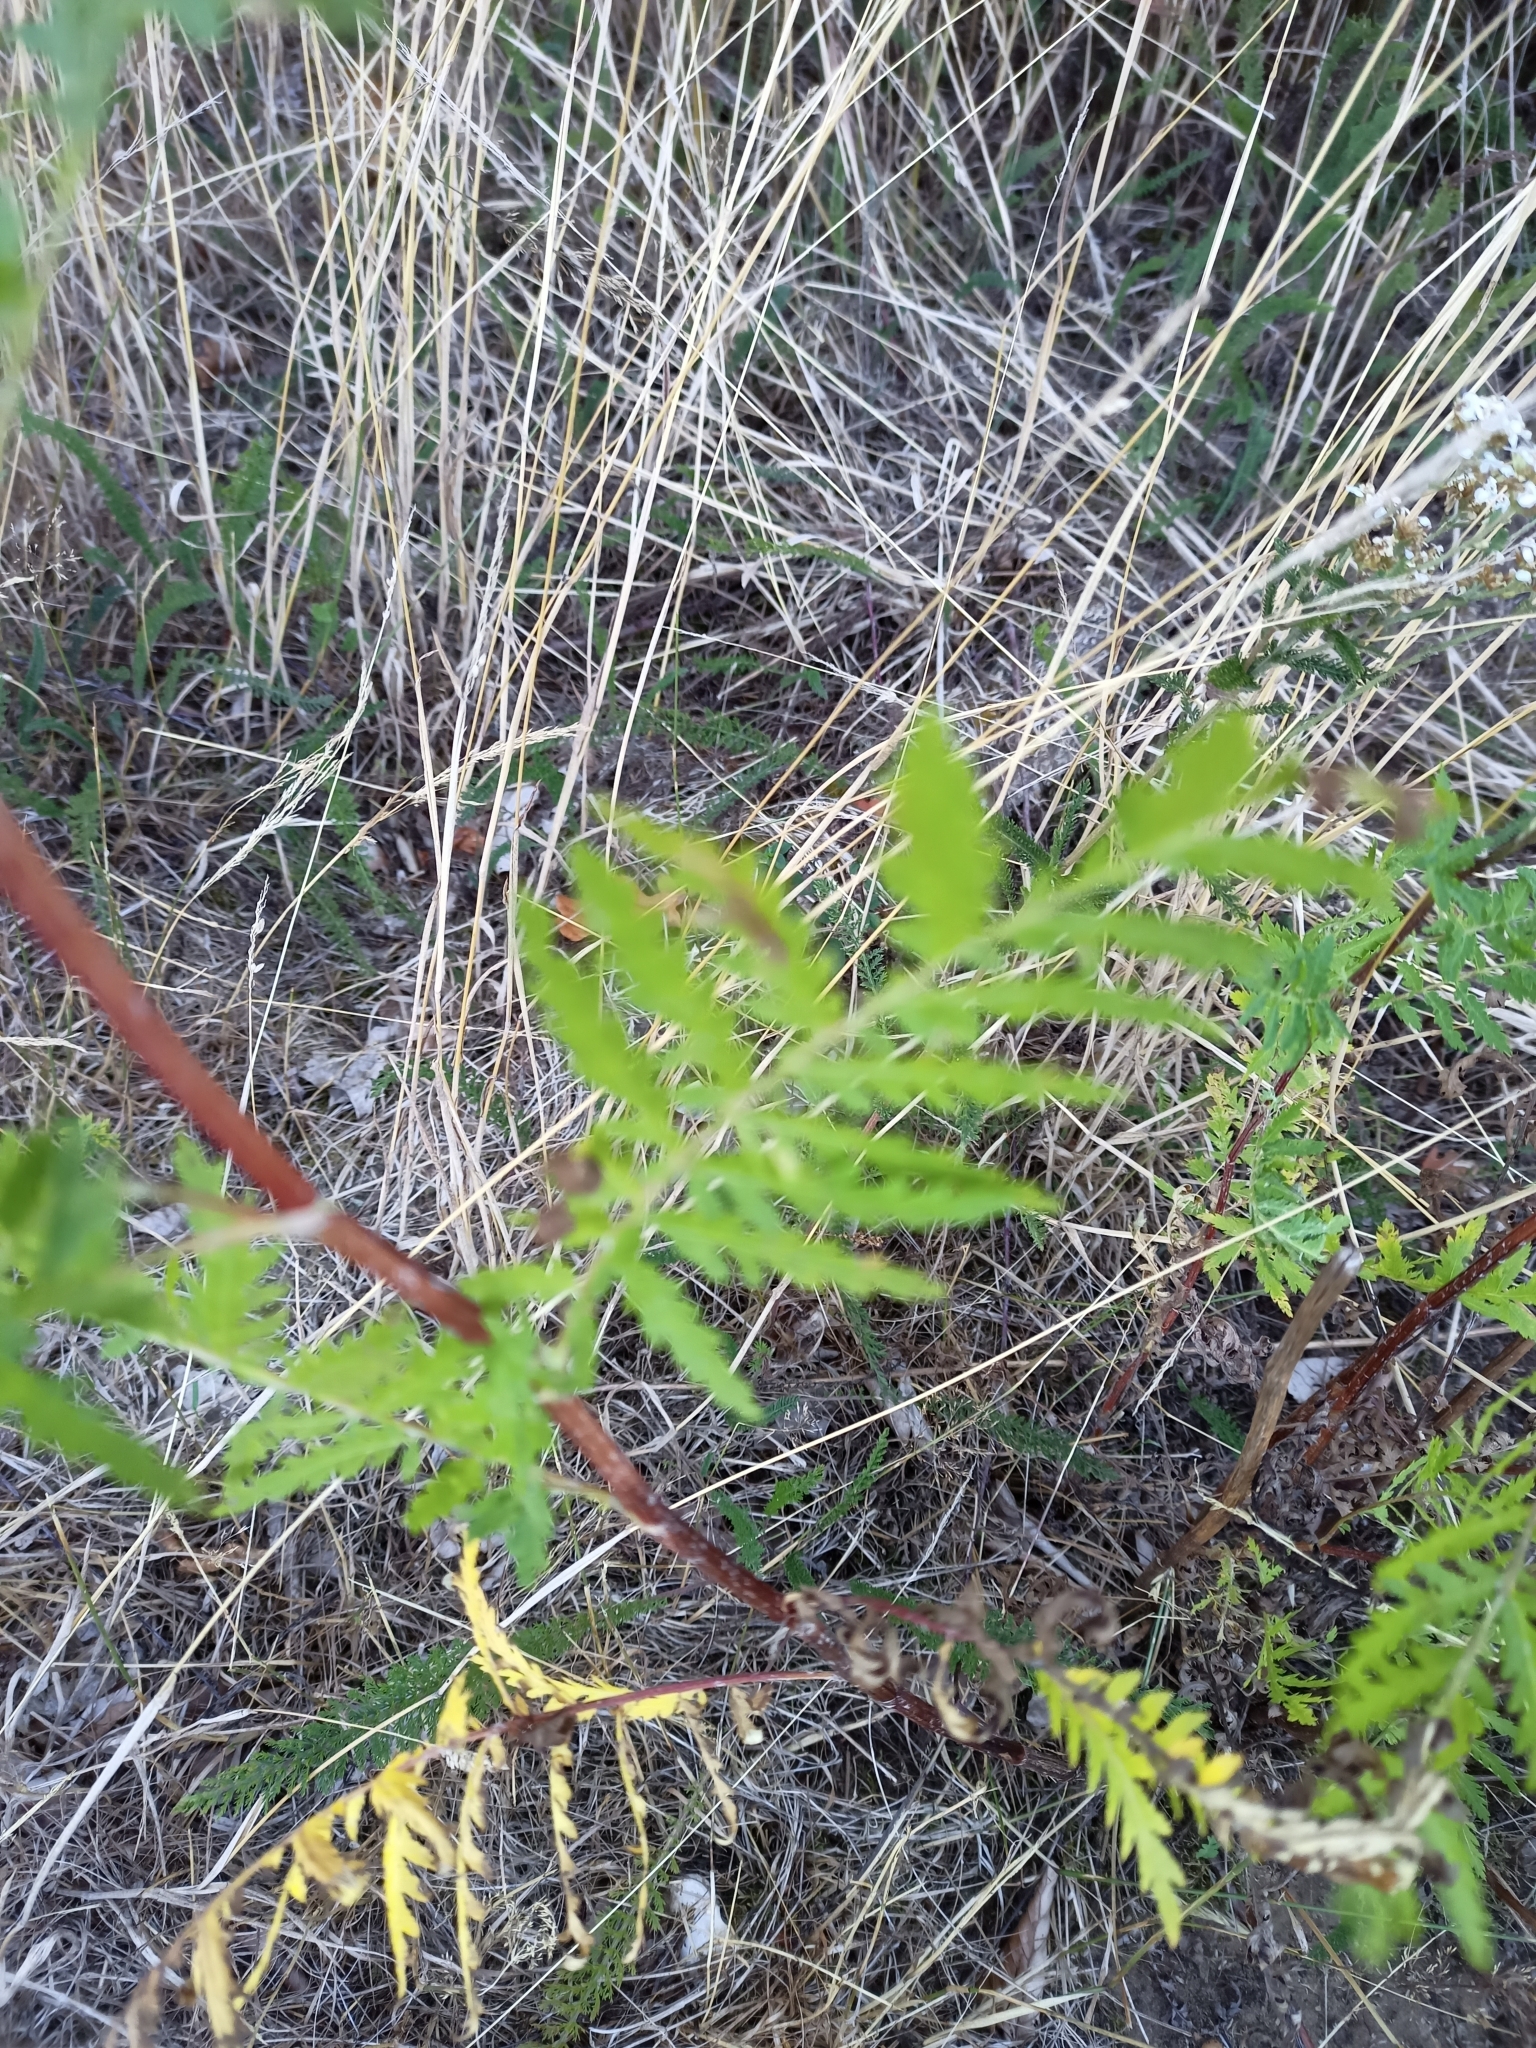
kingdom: Plantae
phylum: Tracheophyta
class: Magnoliopsida
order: Asterales
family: Asteraceae
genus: Tanacetum
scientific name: Tanacetum vulgare
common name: Common tansy
